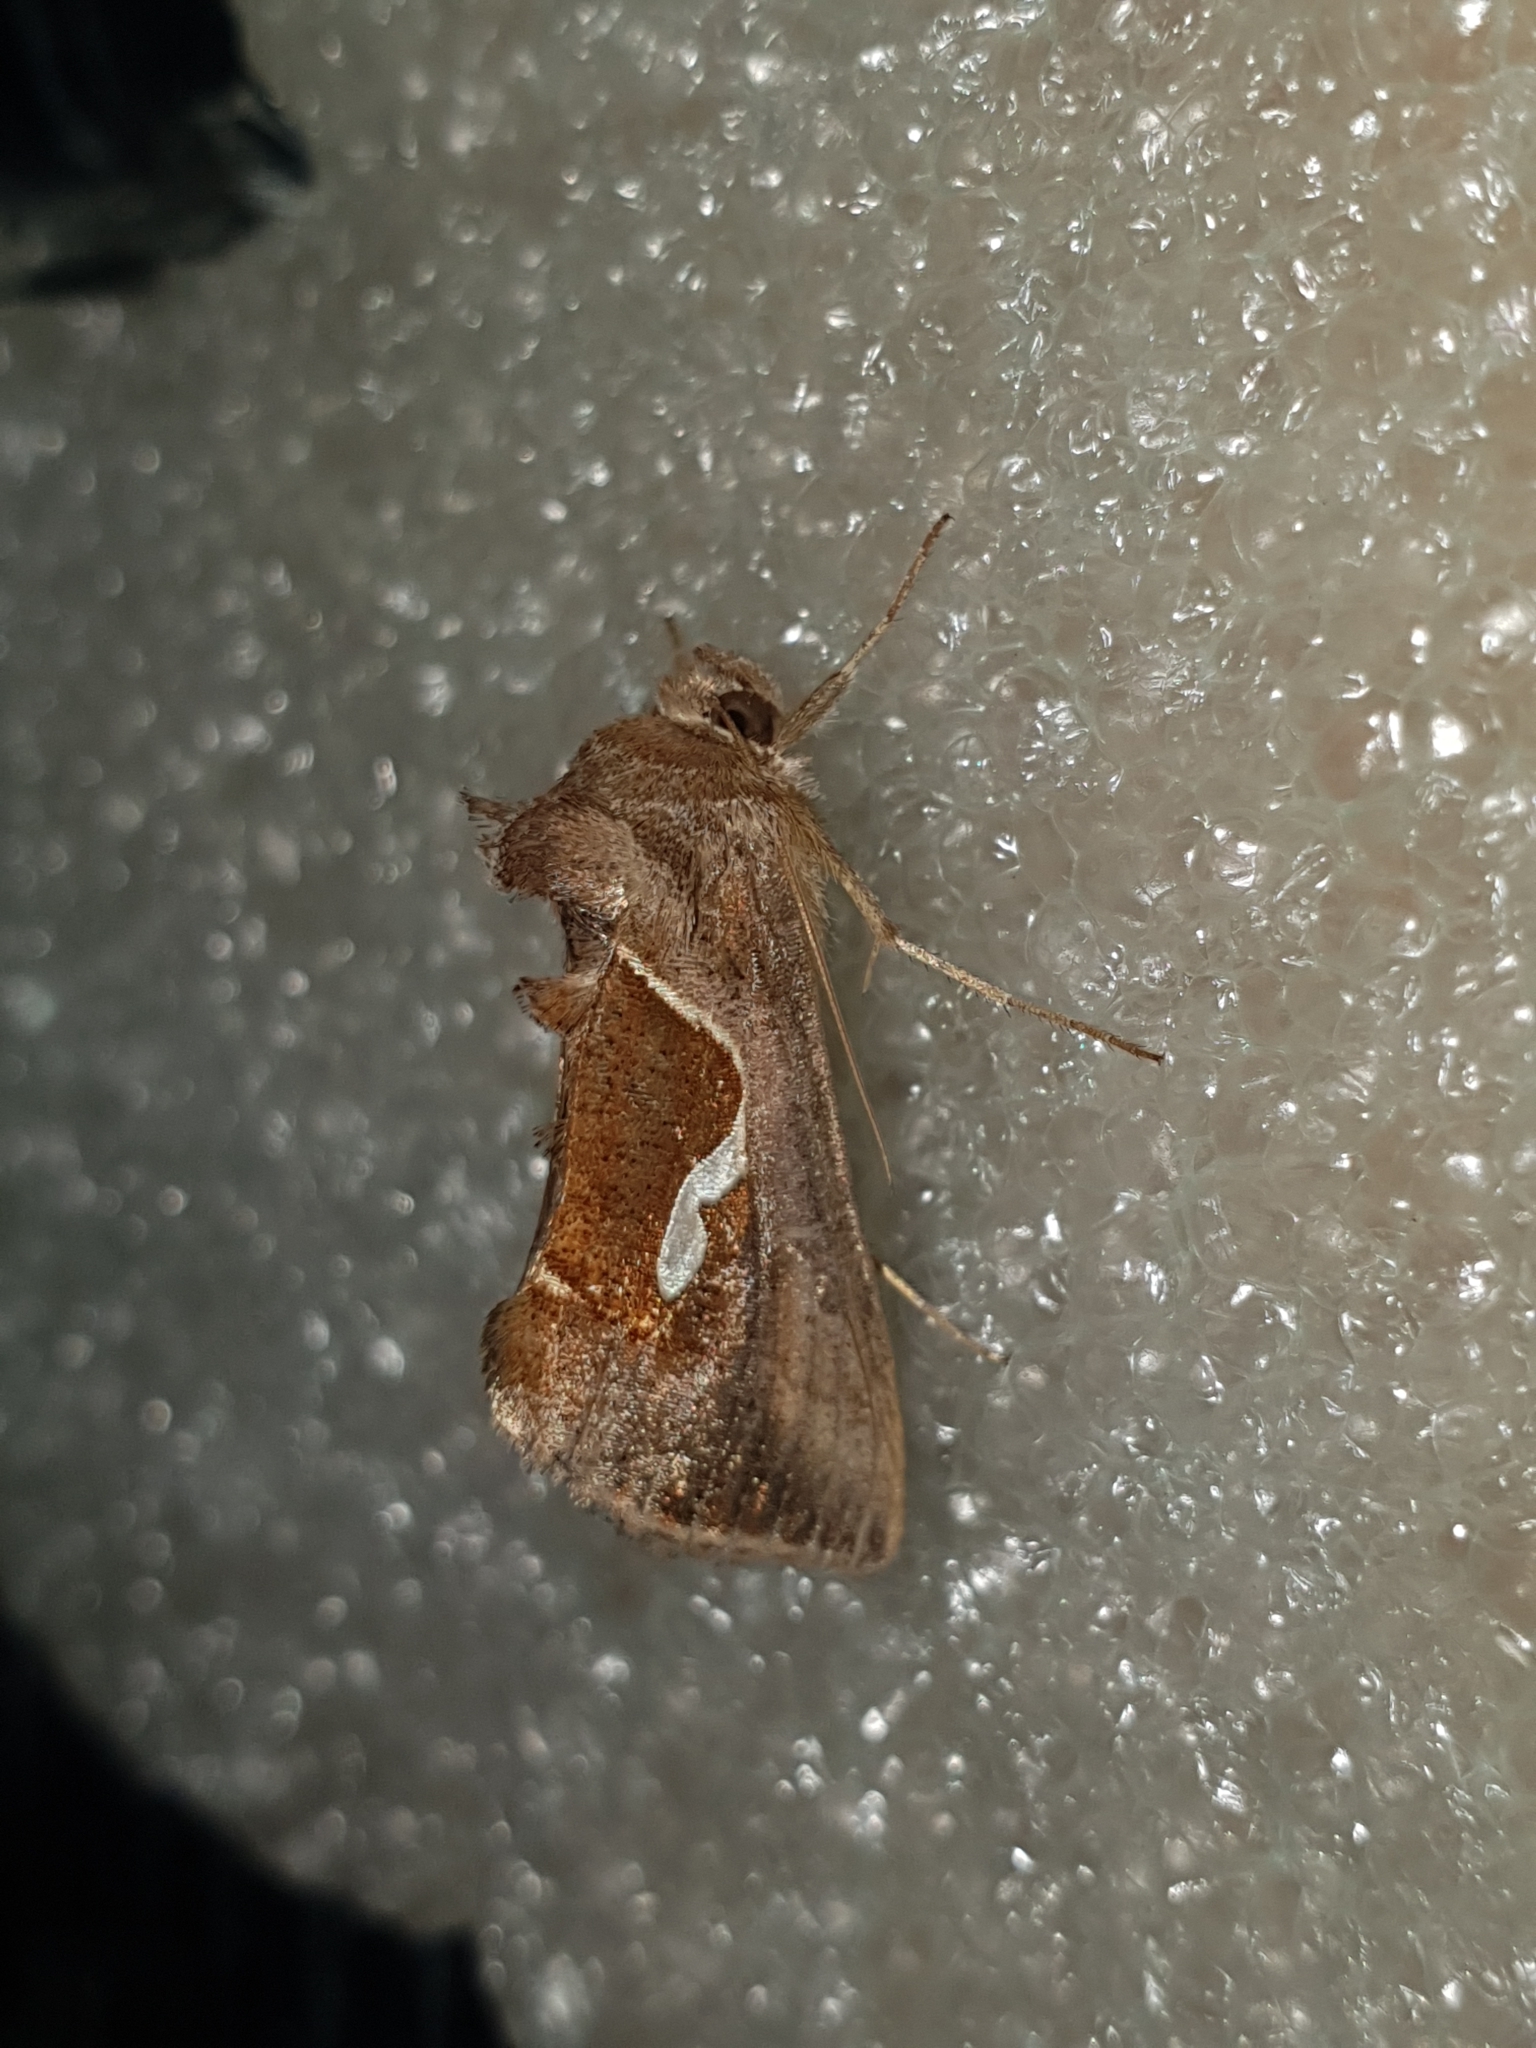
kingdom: Animalia
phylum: Arthropoda
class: Insecta
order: Lepidoptera
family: Noctuidae
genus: Macdunnoughia
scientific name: Macdunnoughia confusa
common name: Dewick's plusia
